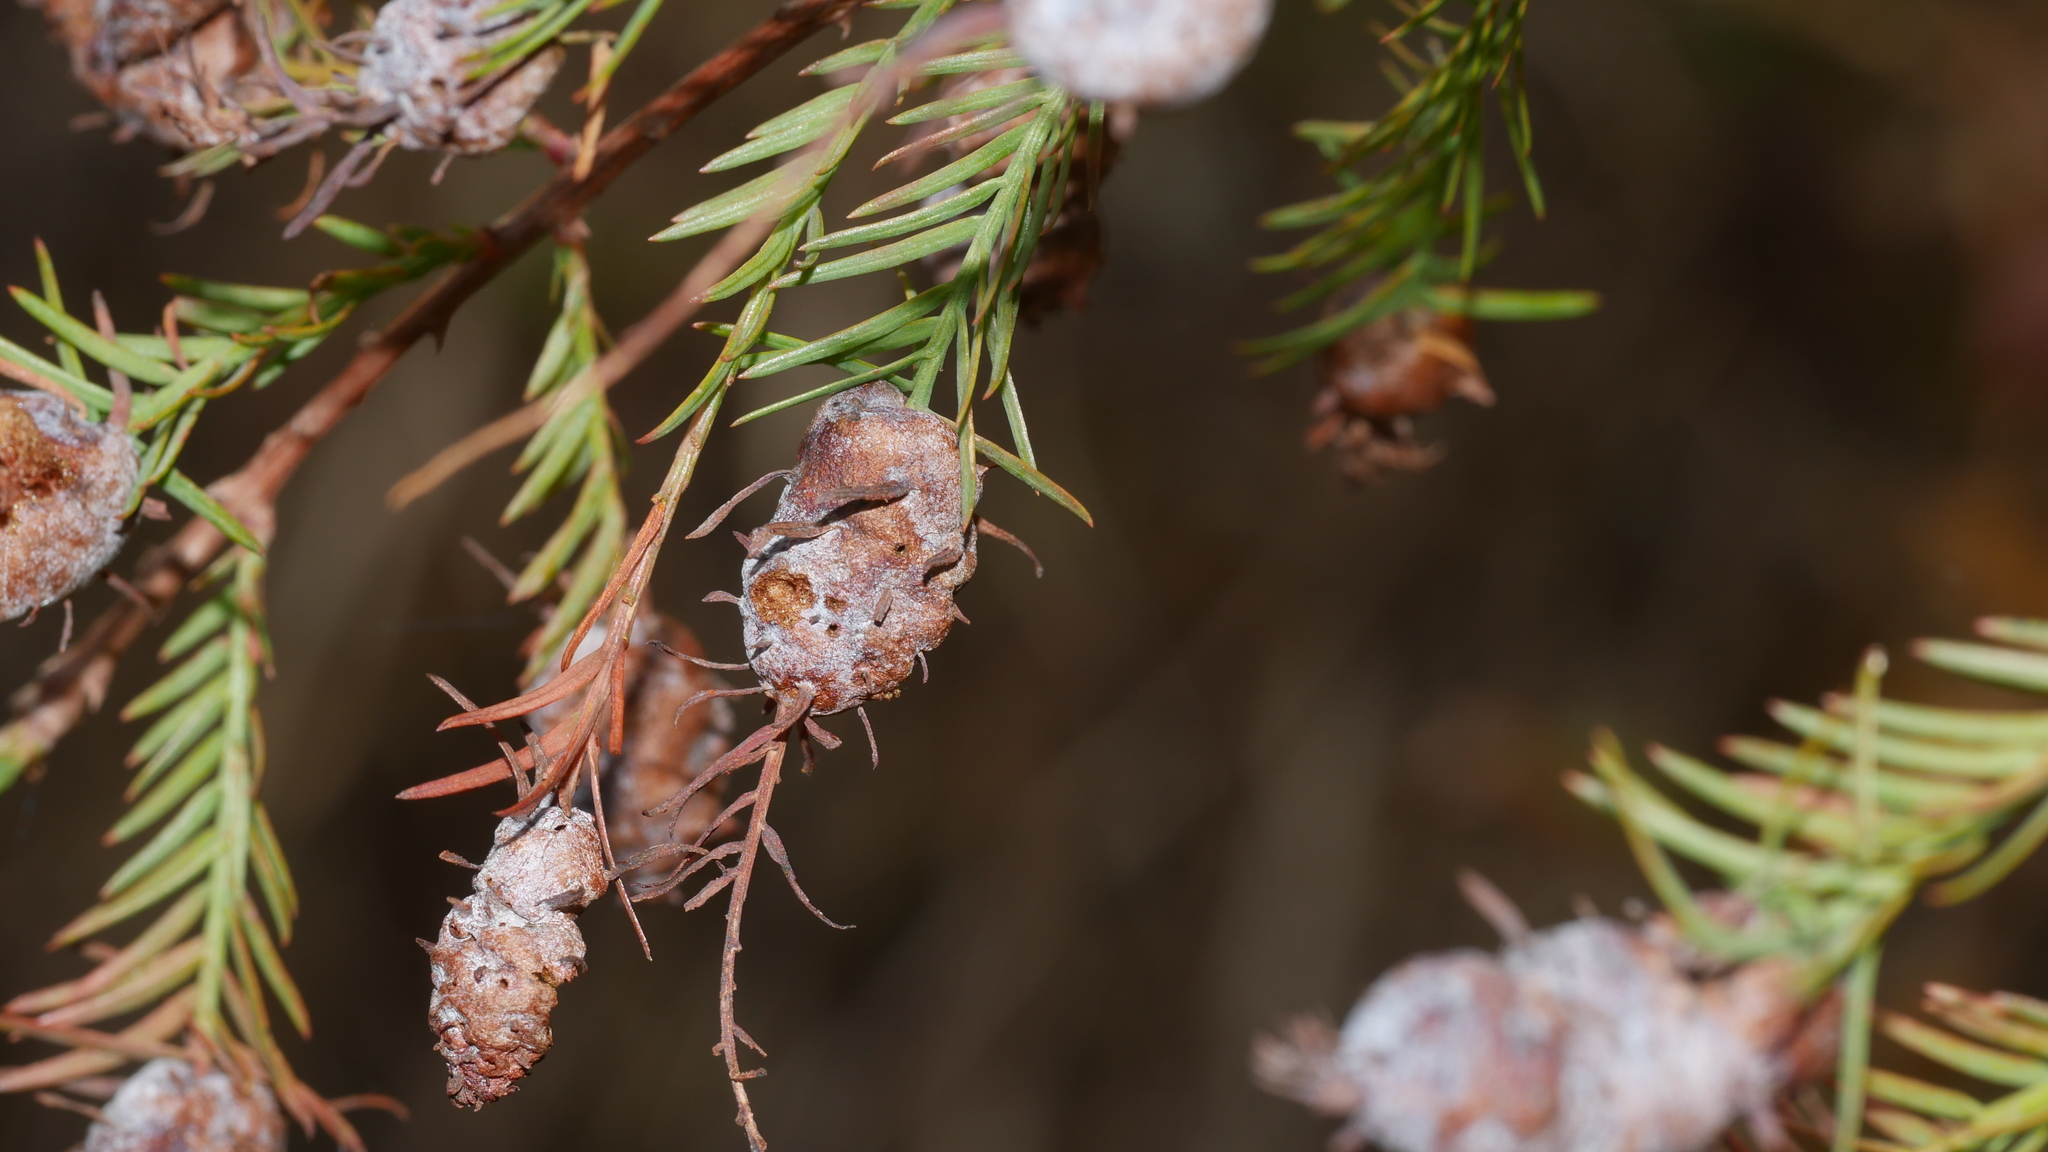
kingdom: Animalia
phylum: Arthropoda
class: Insecta
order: Diptera
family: Cecidomyiidae
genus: Taxodiomyia
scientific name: Taxodiomyia cupressiananassa
